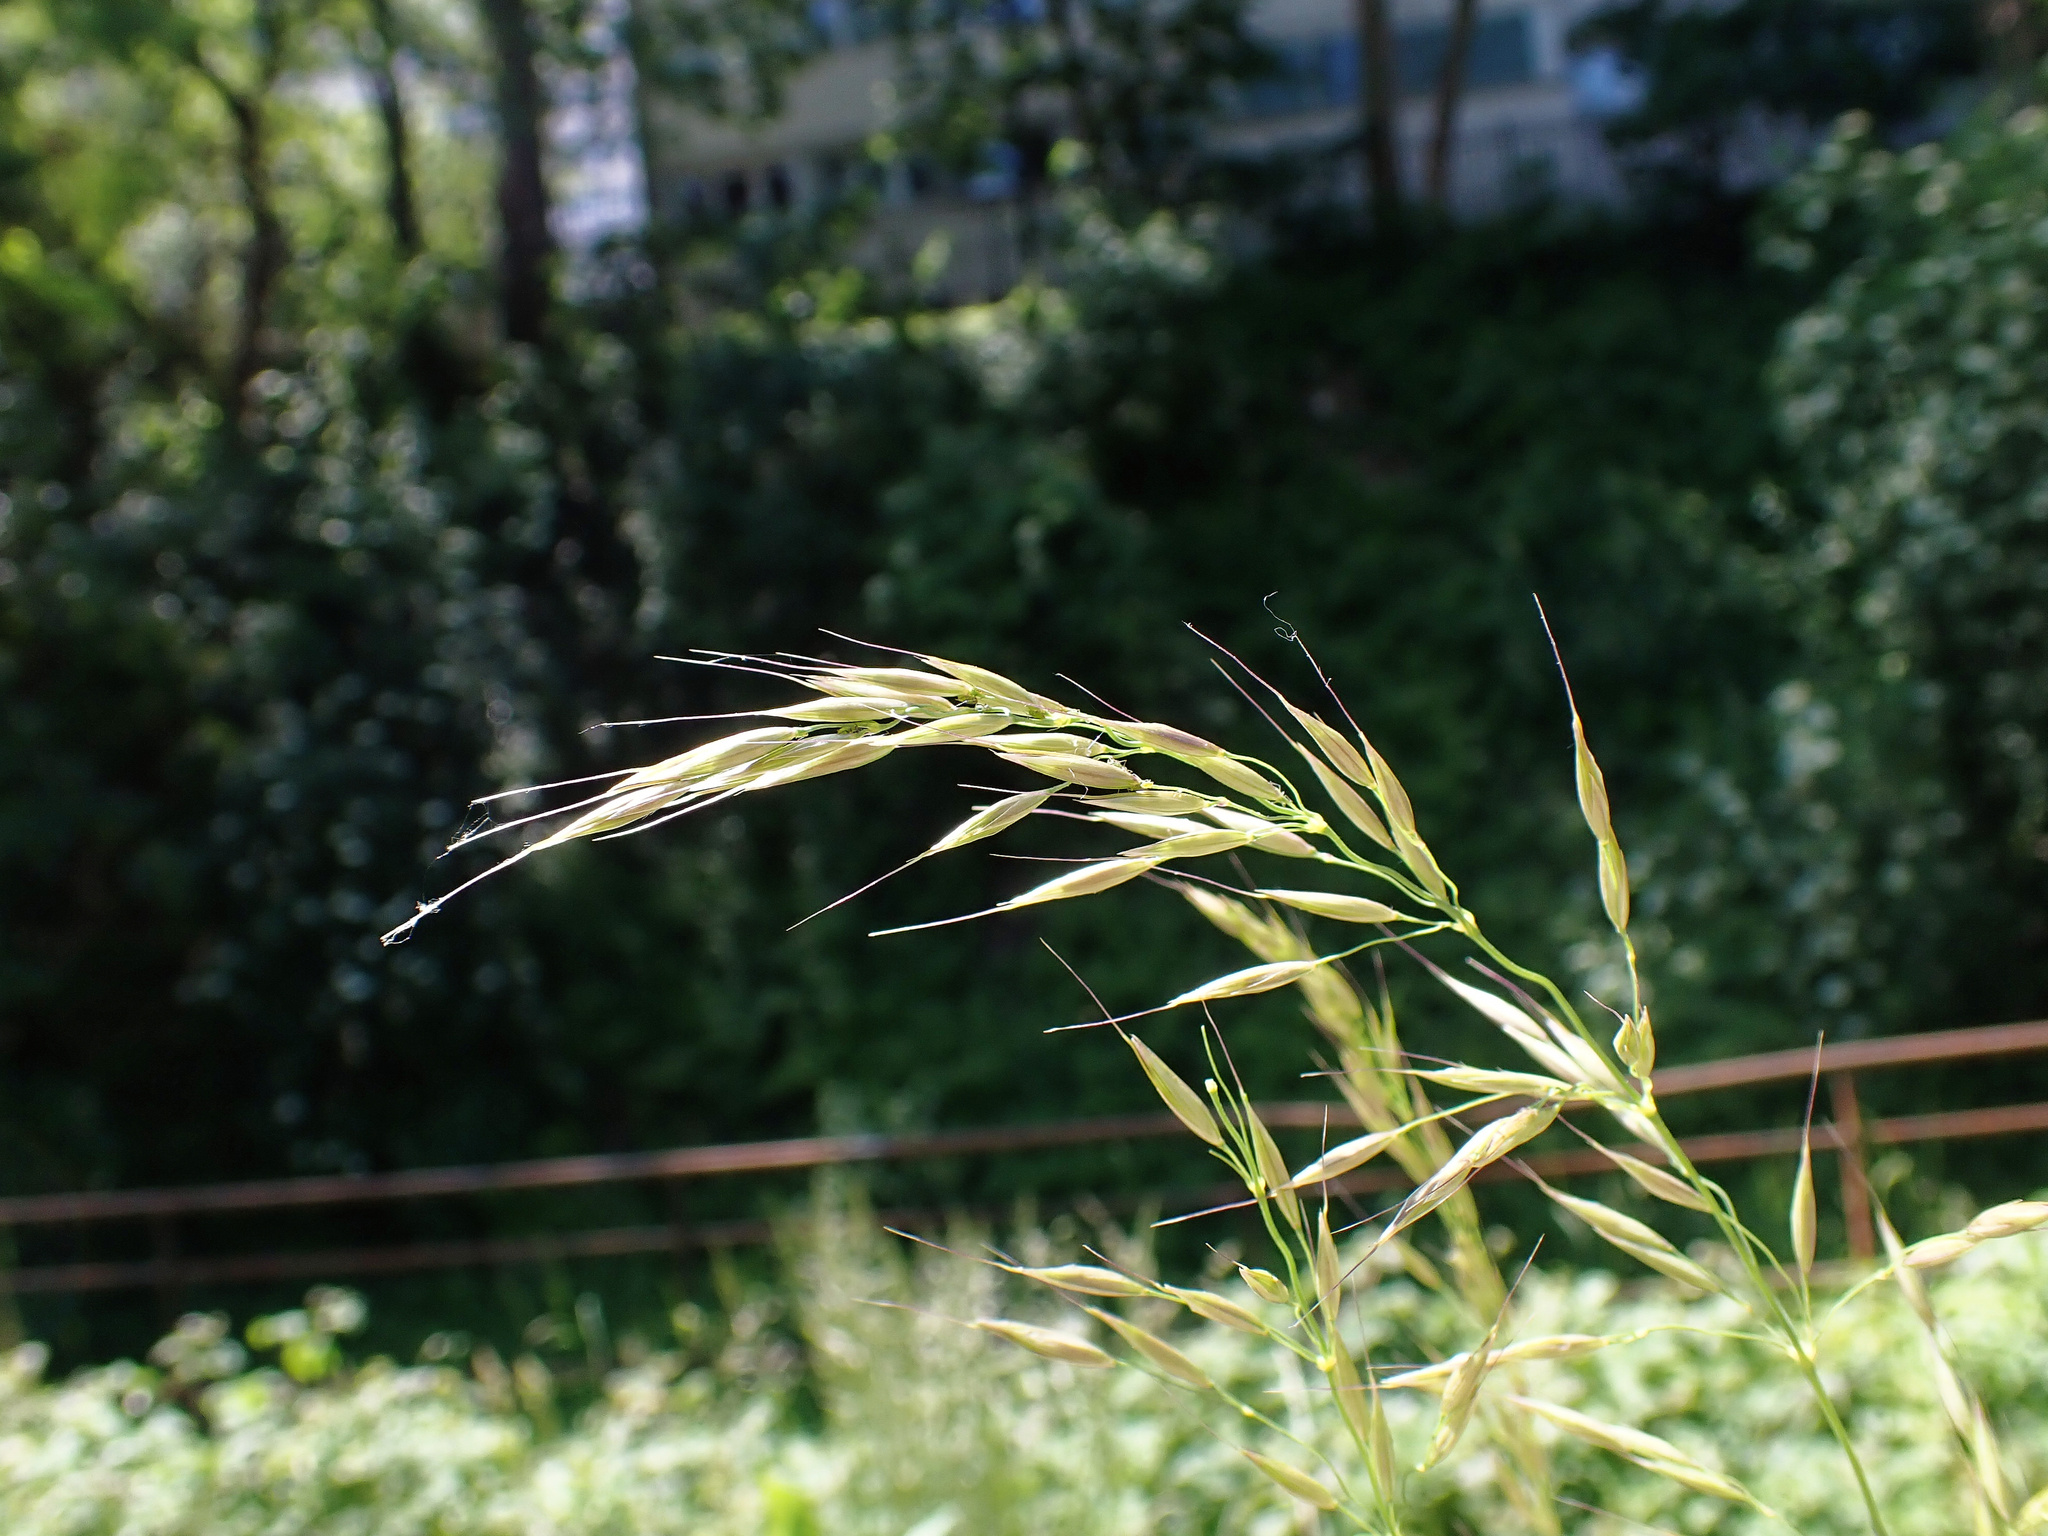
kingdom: Plantae
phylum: Tracheophyta
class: Liliopsida
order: Poales
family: Poaceae
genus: Arrhenatherum
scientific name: Arrhenatherum elatius
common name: Tall oatgrass
